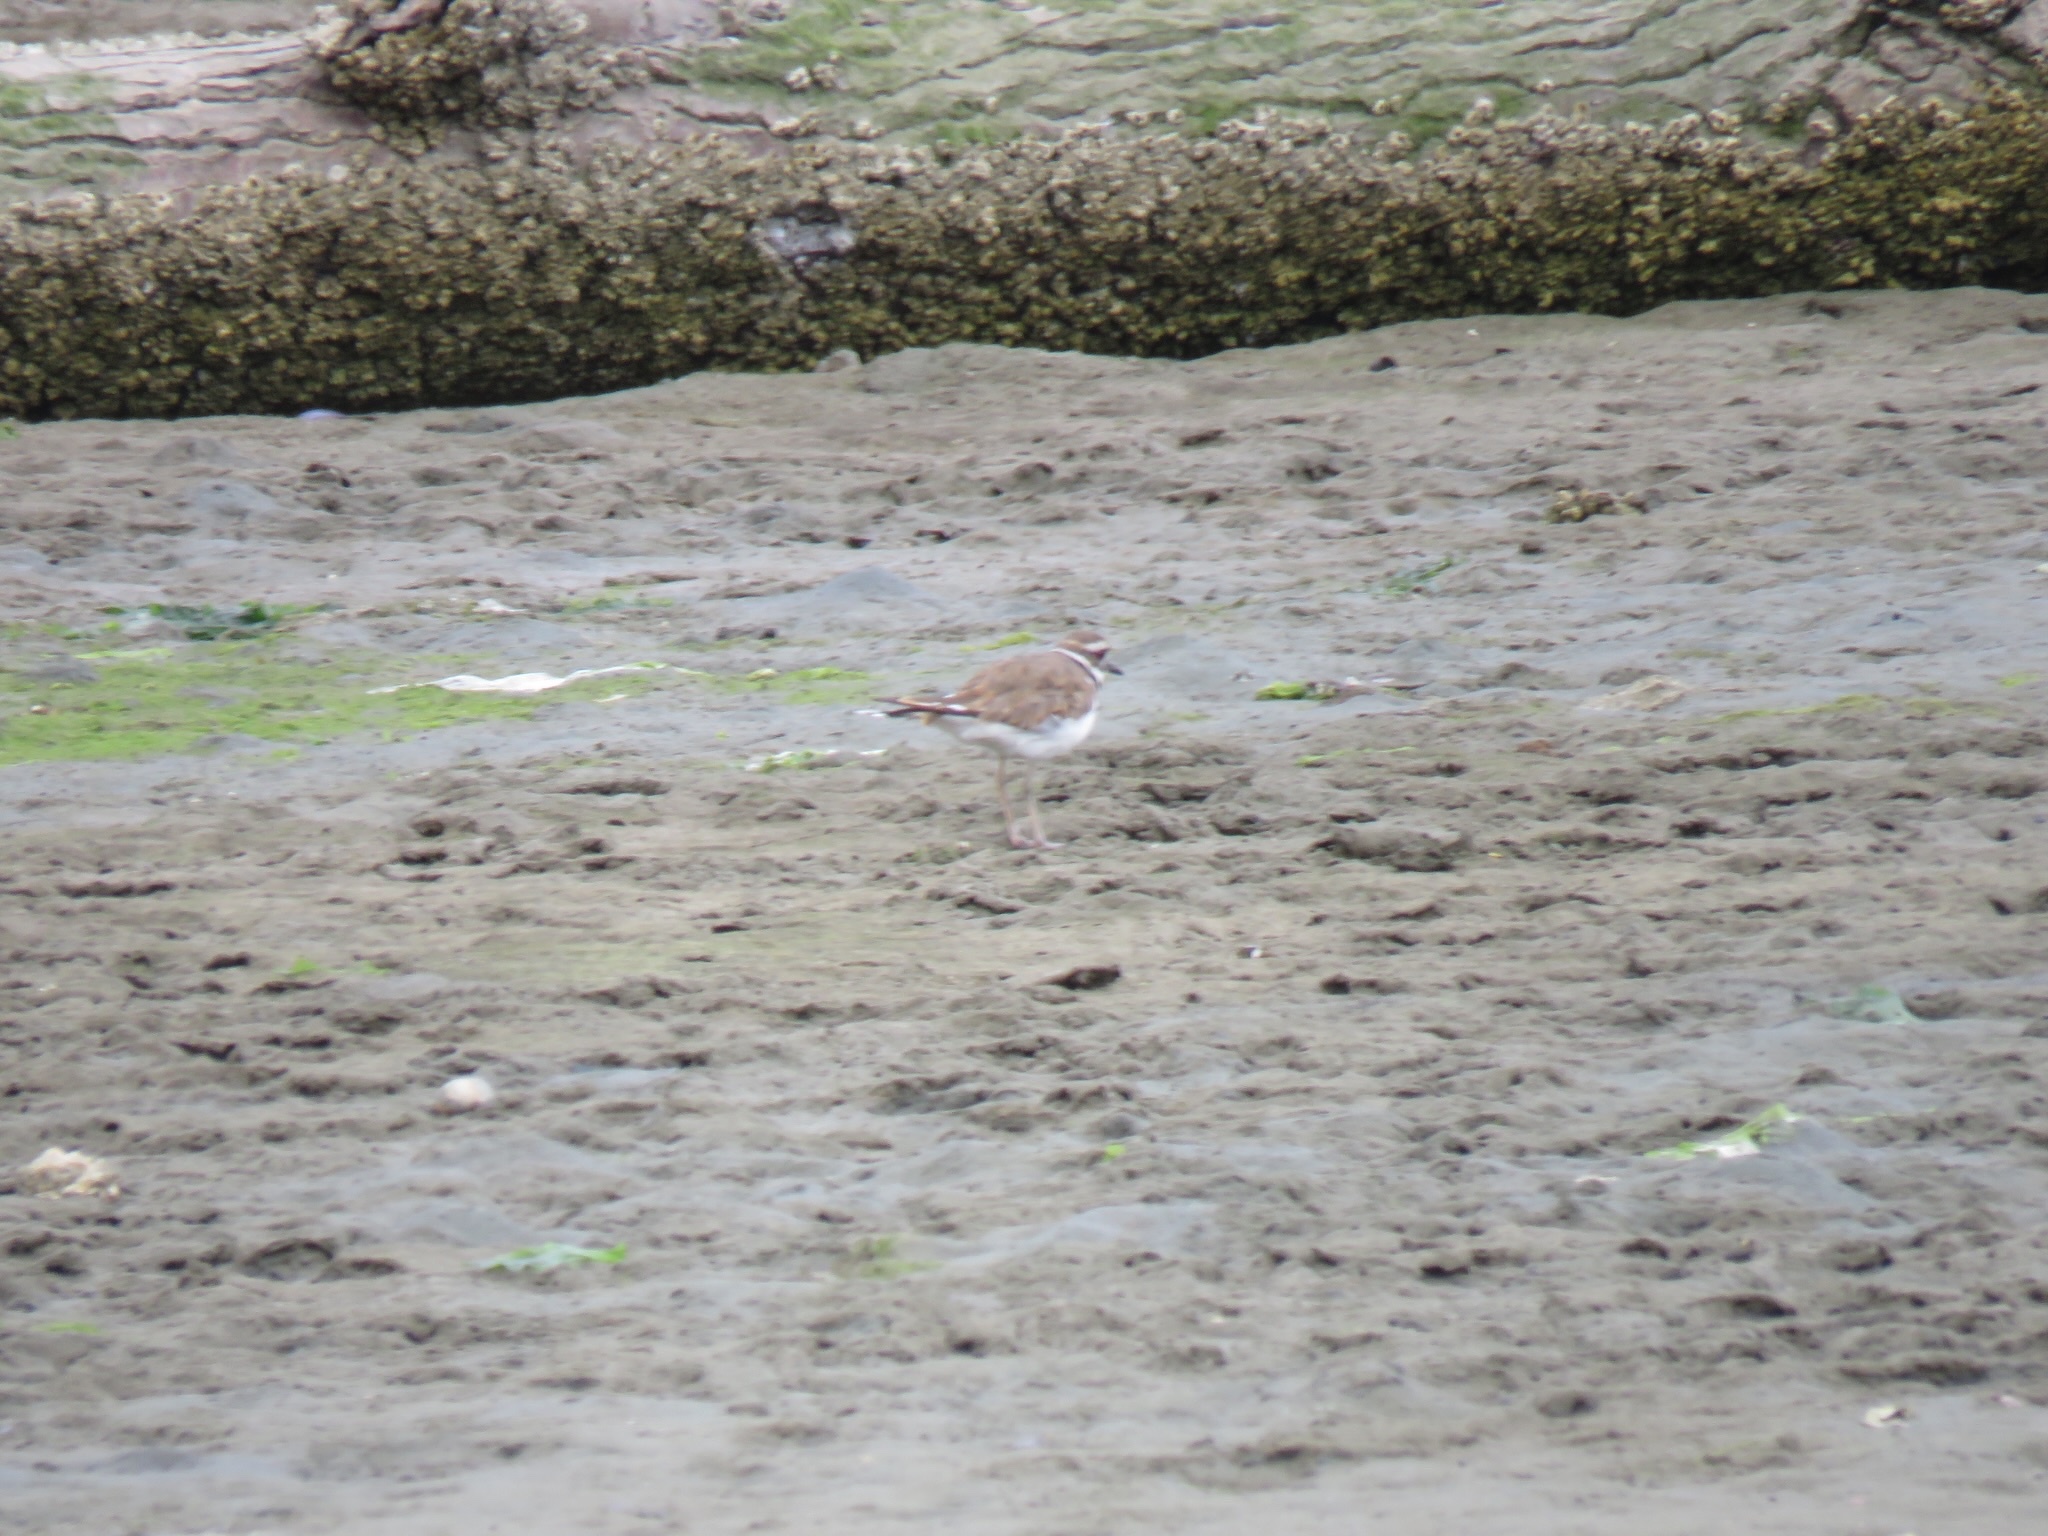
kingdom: Animalia
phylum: Chordata
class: Aves
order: Charadriiformes
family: Charadriidae
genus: Charadrius
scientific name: Charadrius vociferus
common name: Killdeer
